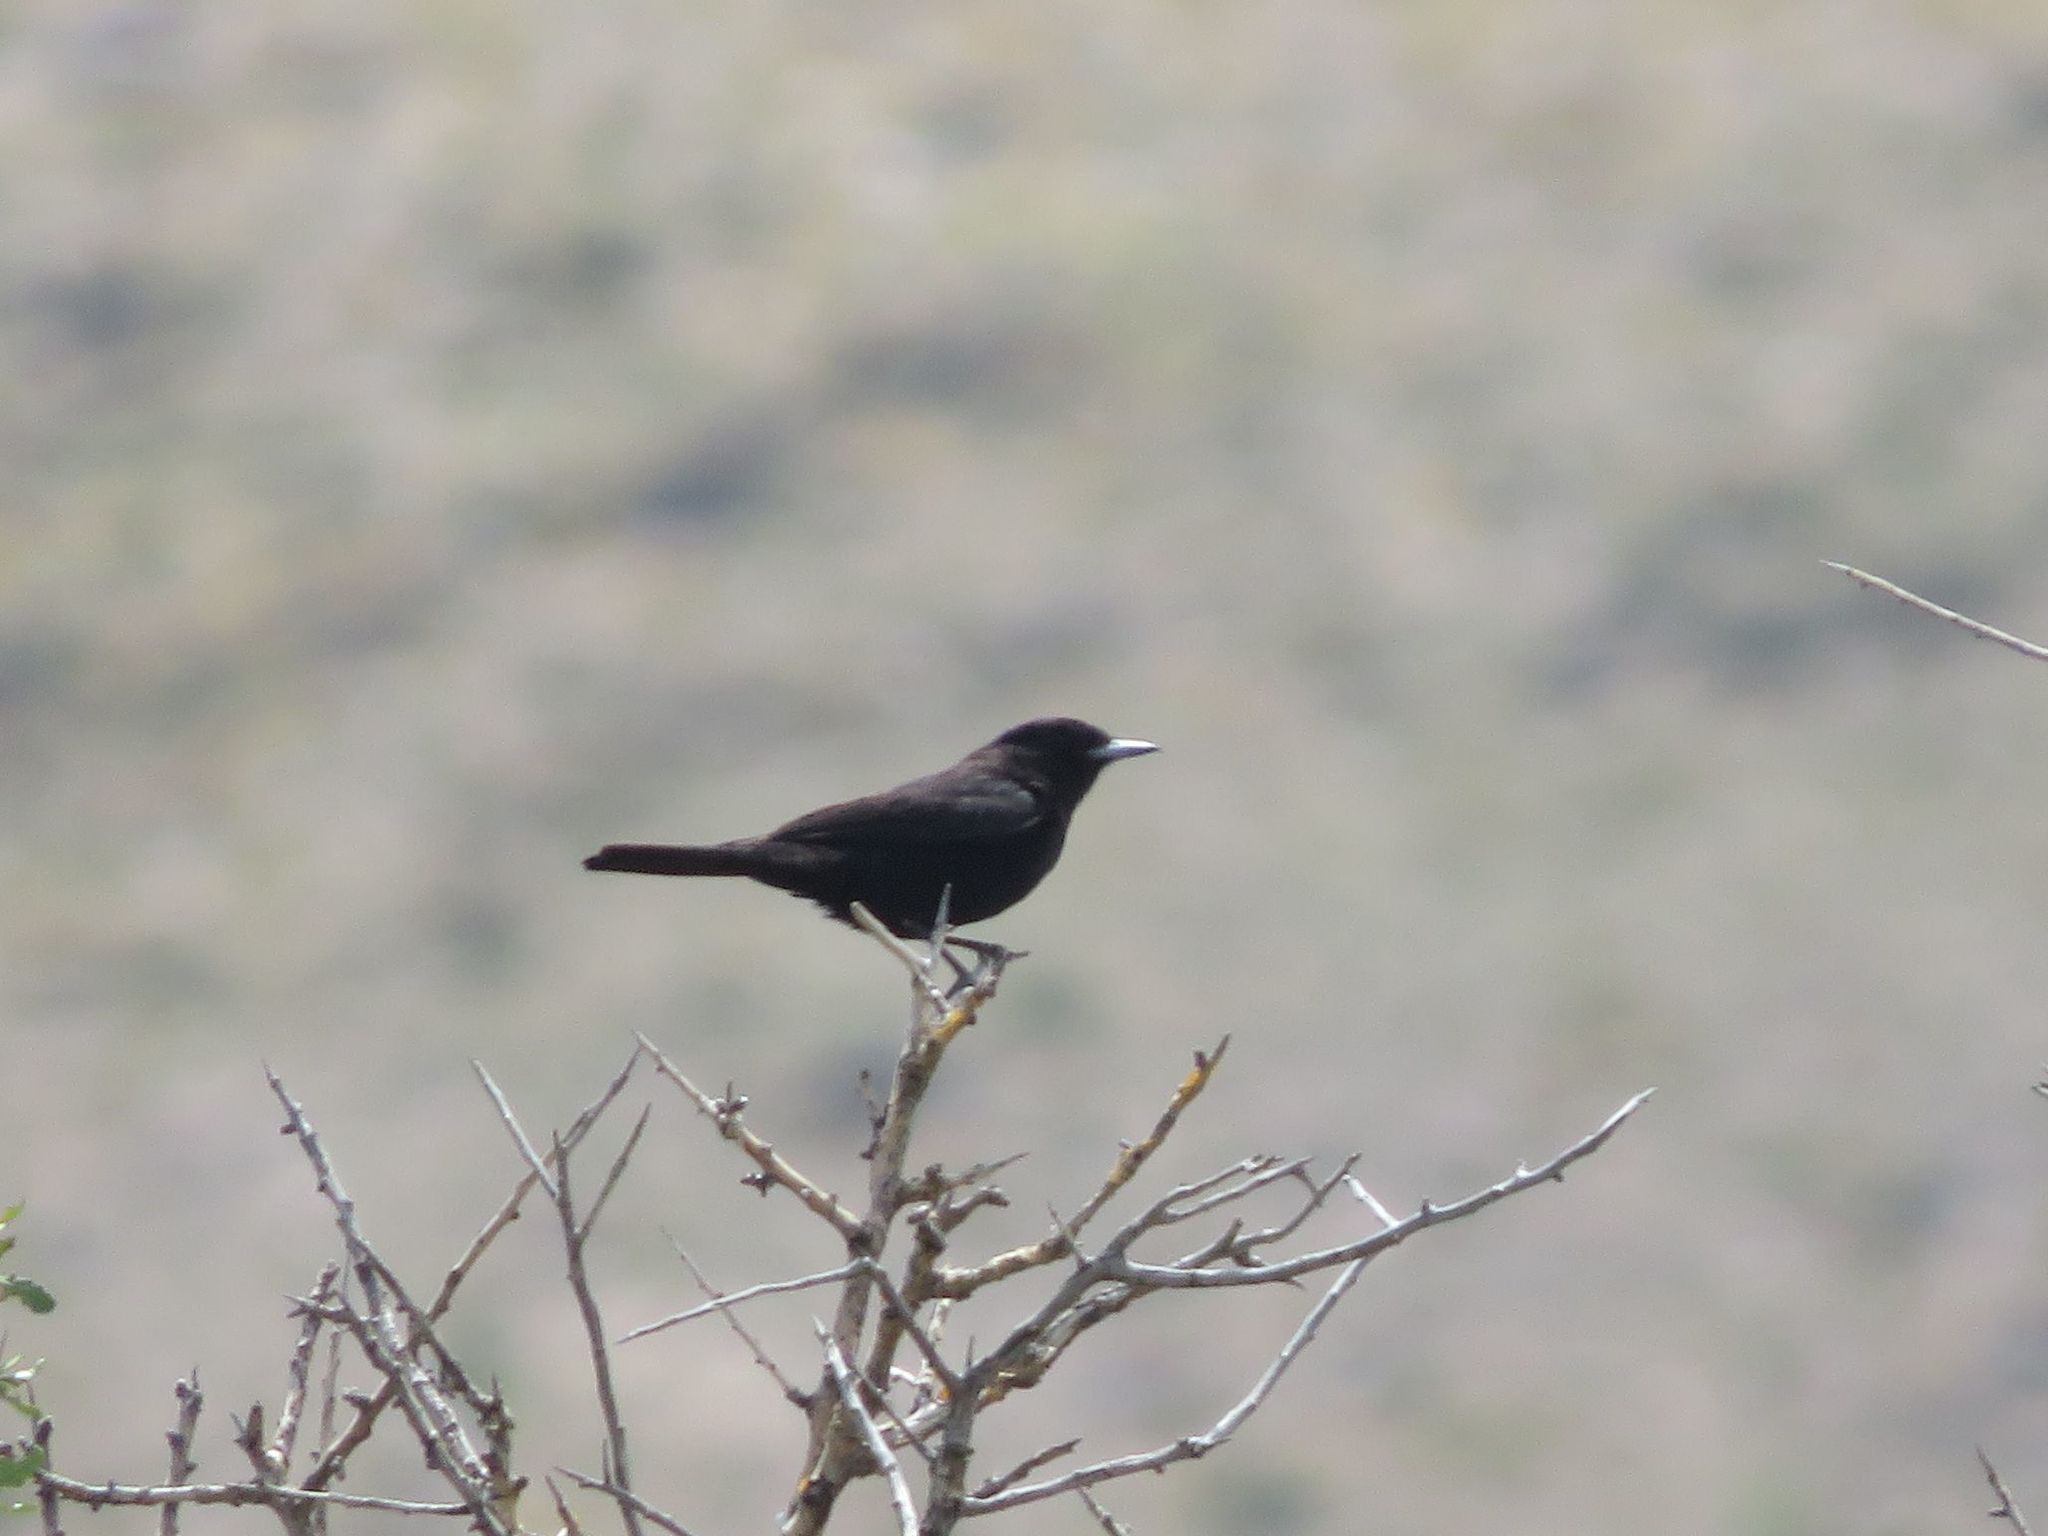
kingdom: Animalia
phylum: Chordata
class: Aves
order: Passeriformes
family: Tyrannidae
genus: Knipolegus
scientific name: Knipolegus aterrimus
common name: White-winged black tyrant
